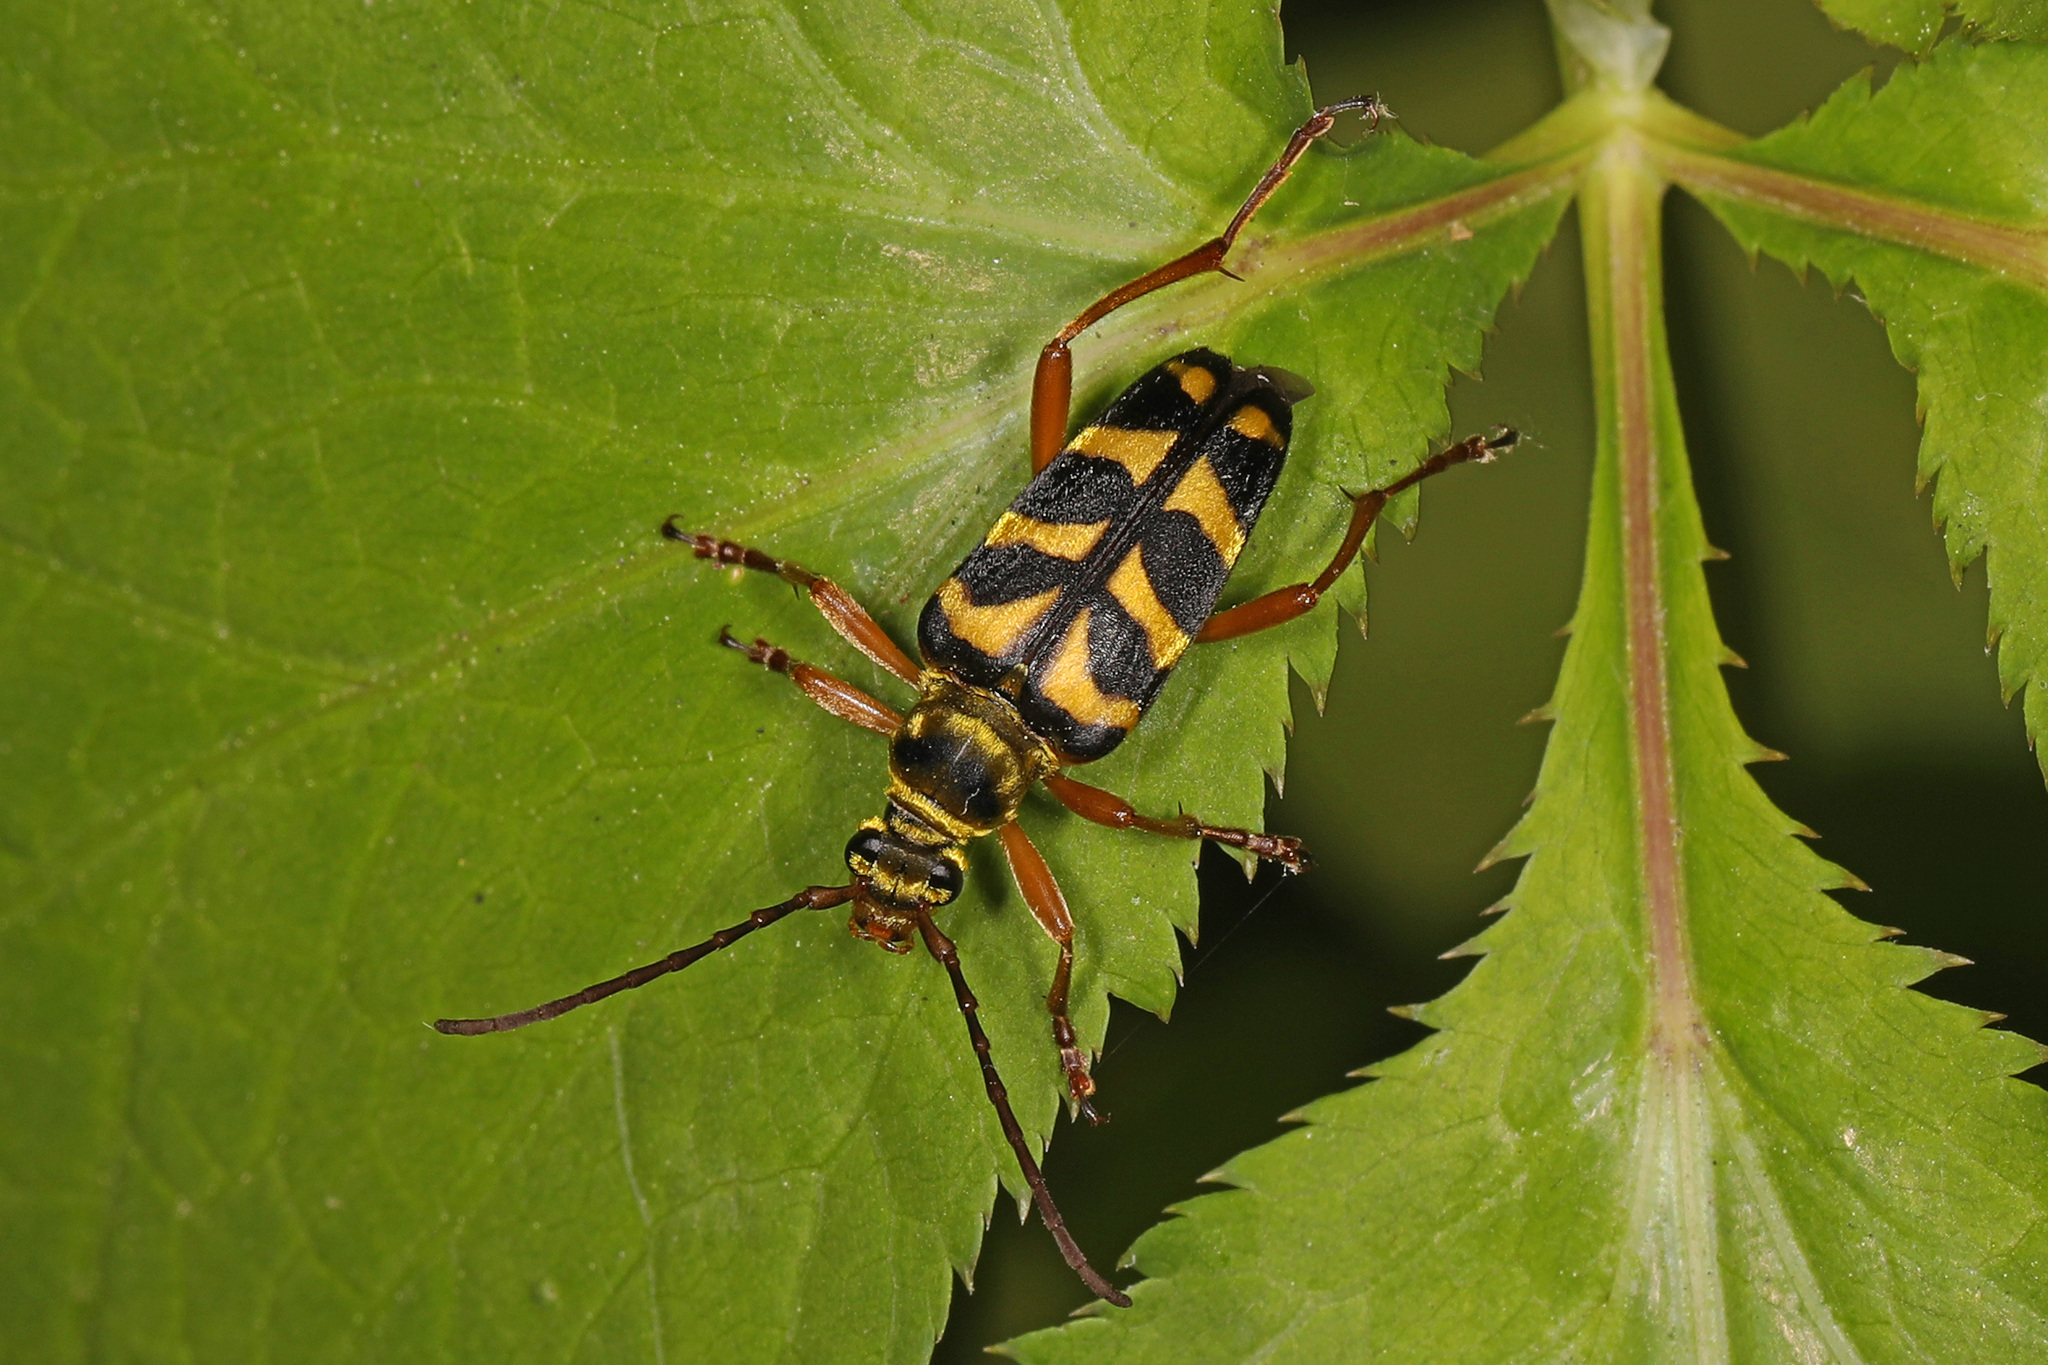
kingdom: Animalia
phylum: Arthropoda
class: Insecta
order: Coleoptera
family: Cerambycidae
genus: Strophiona
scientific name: Strophiona nitens
